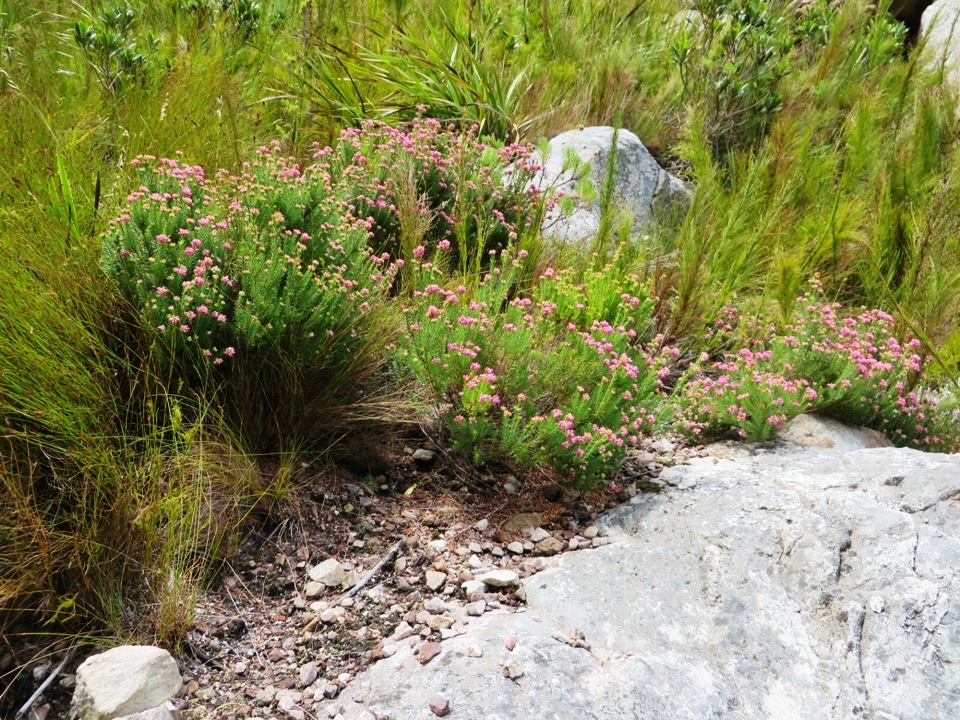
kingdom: Plantae
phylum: Tracheophyta
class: Magnoliopsida
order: Ericales
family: Ericaceae
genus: Erica
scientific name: Erica taxifolia
